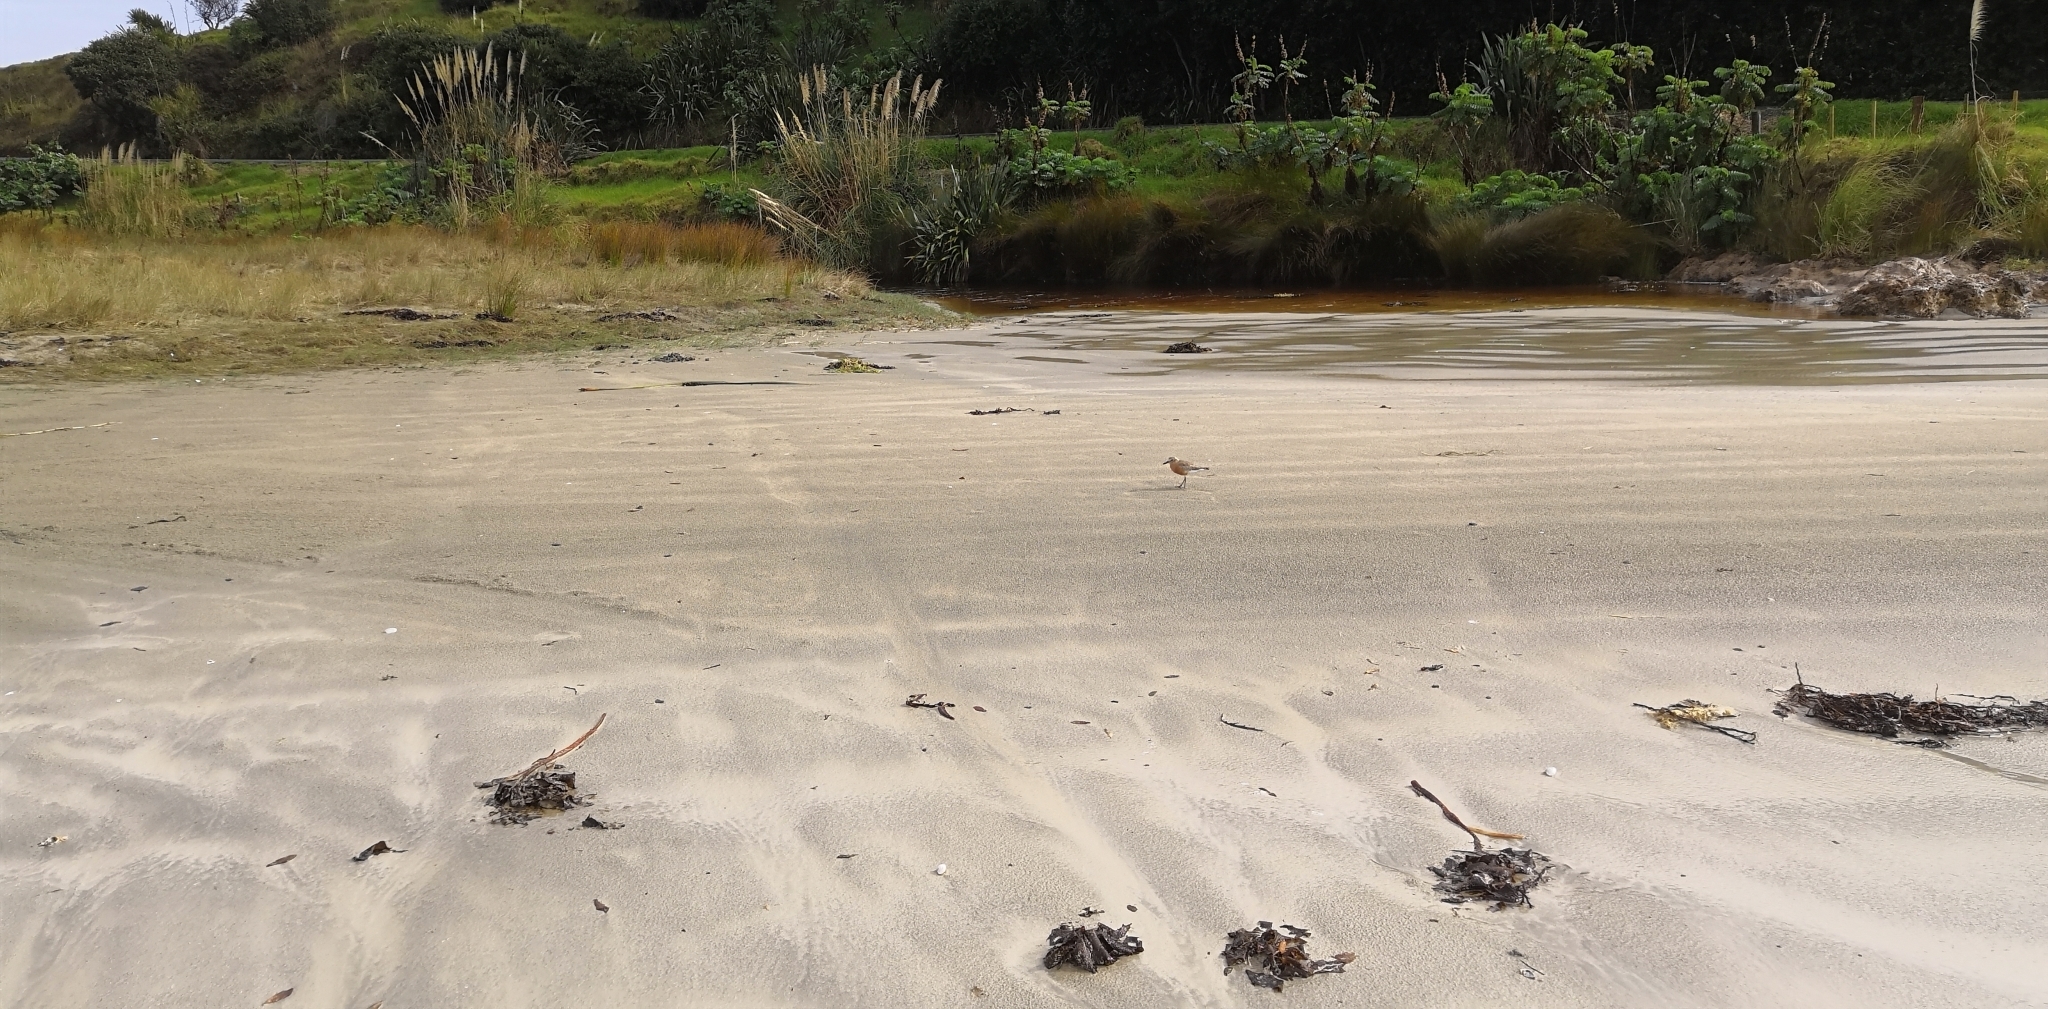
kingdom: Animalia
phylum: Chordata
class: Aves
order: Charadriiformes
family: Charadriidae
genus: Anarhynchus
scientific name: Anarhynchus
